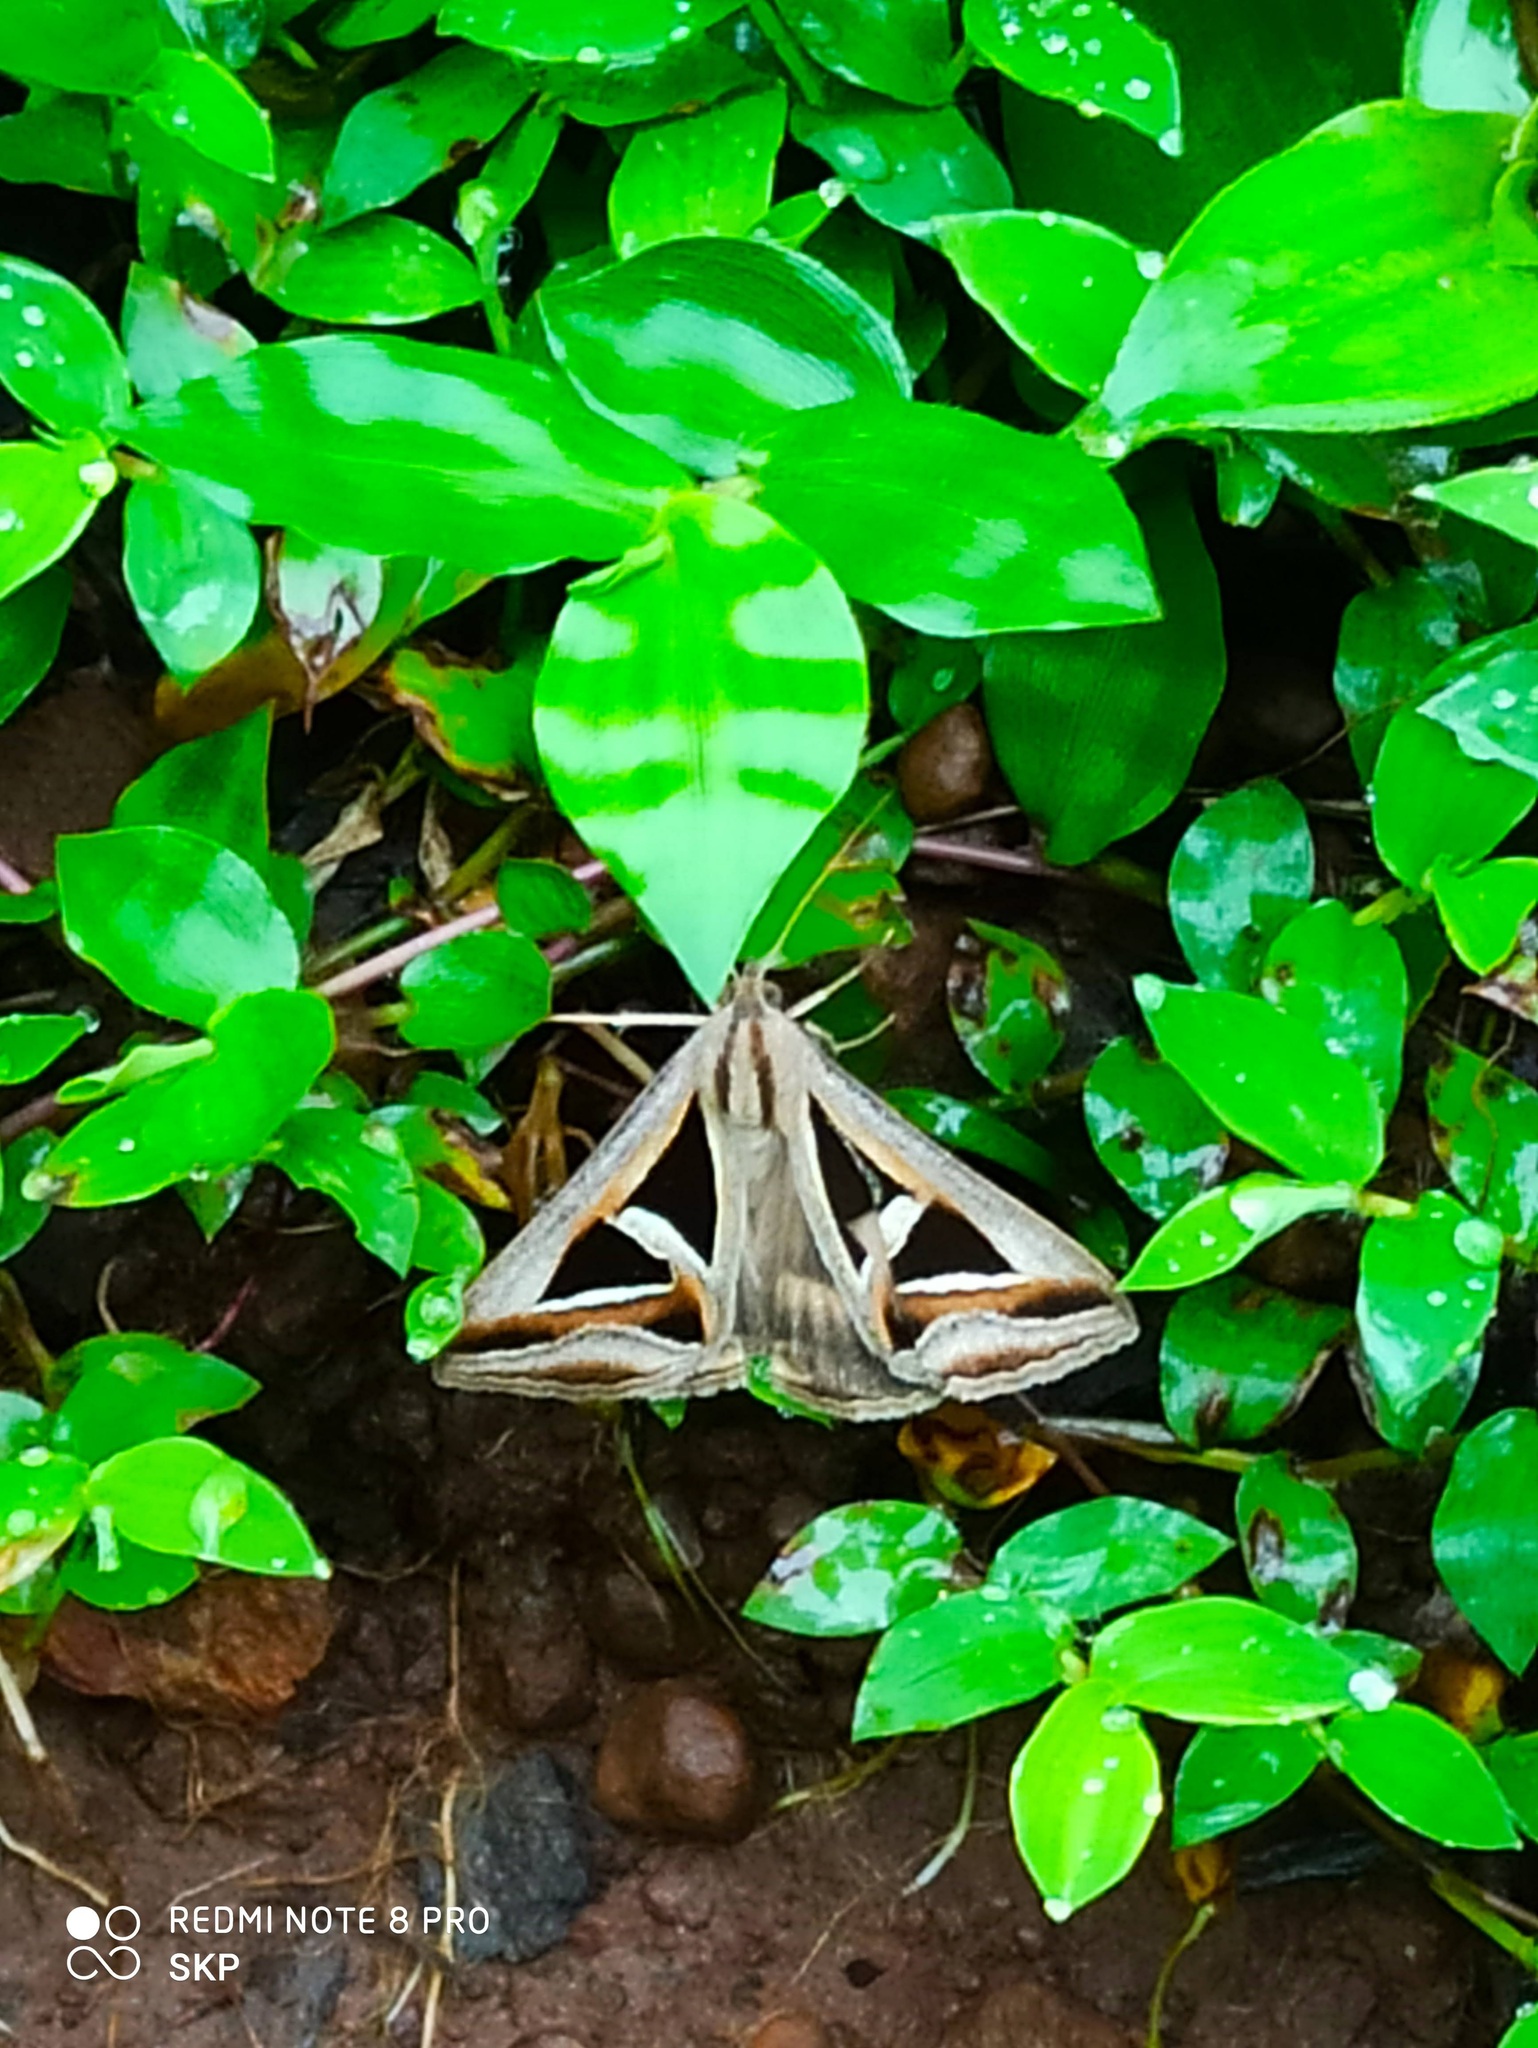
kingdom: Animalia
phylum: Arthropoda
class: Insecta
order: Lepidoptera
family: Erebidae
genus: Trigonodes
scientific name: Trigonodes hyppasia
